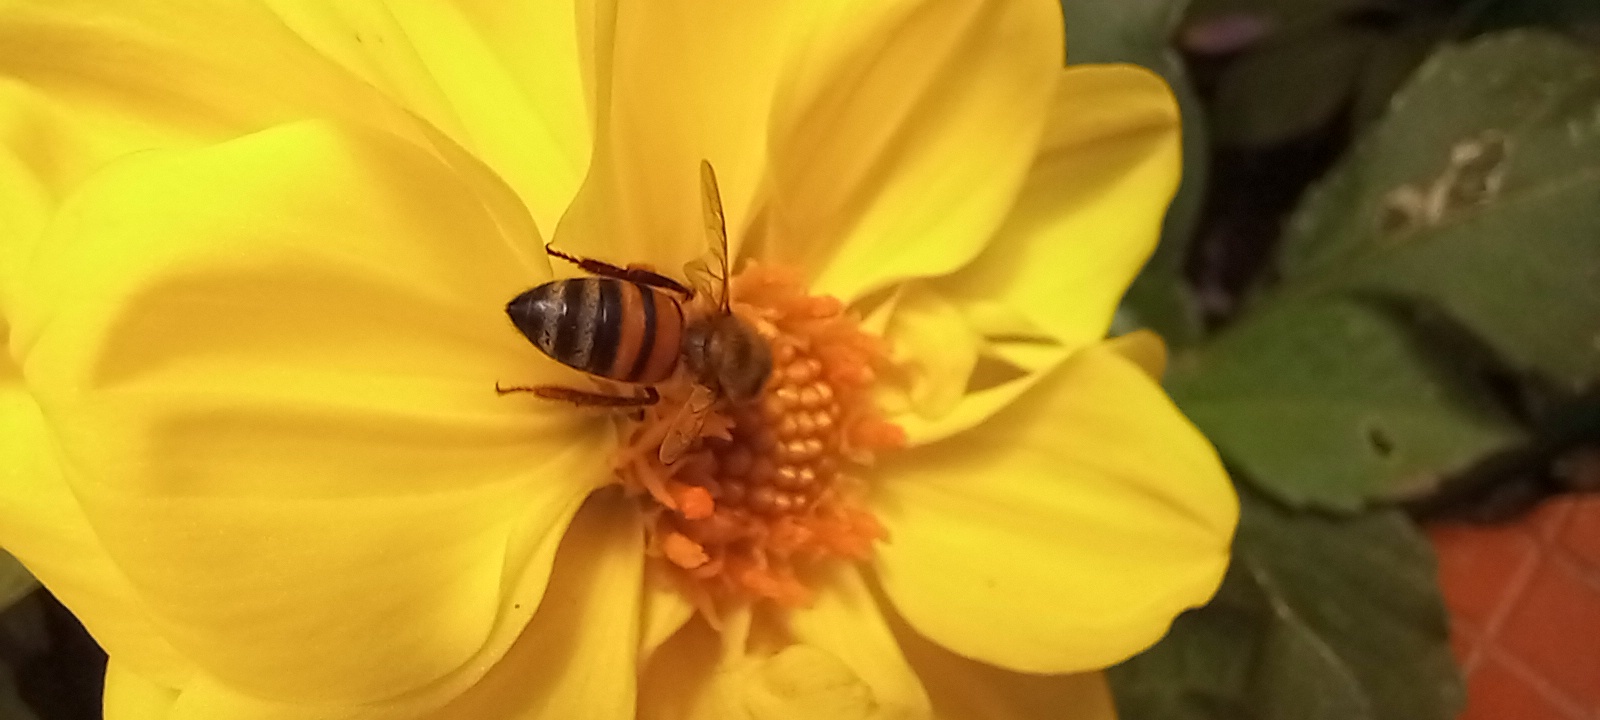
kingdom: Animalia
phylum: Arthropoda
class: Insecta
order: Hymenoptera
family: Apidae
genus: Apis
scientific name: Apis mellifera
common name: Honey bee
